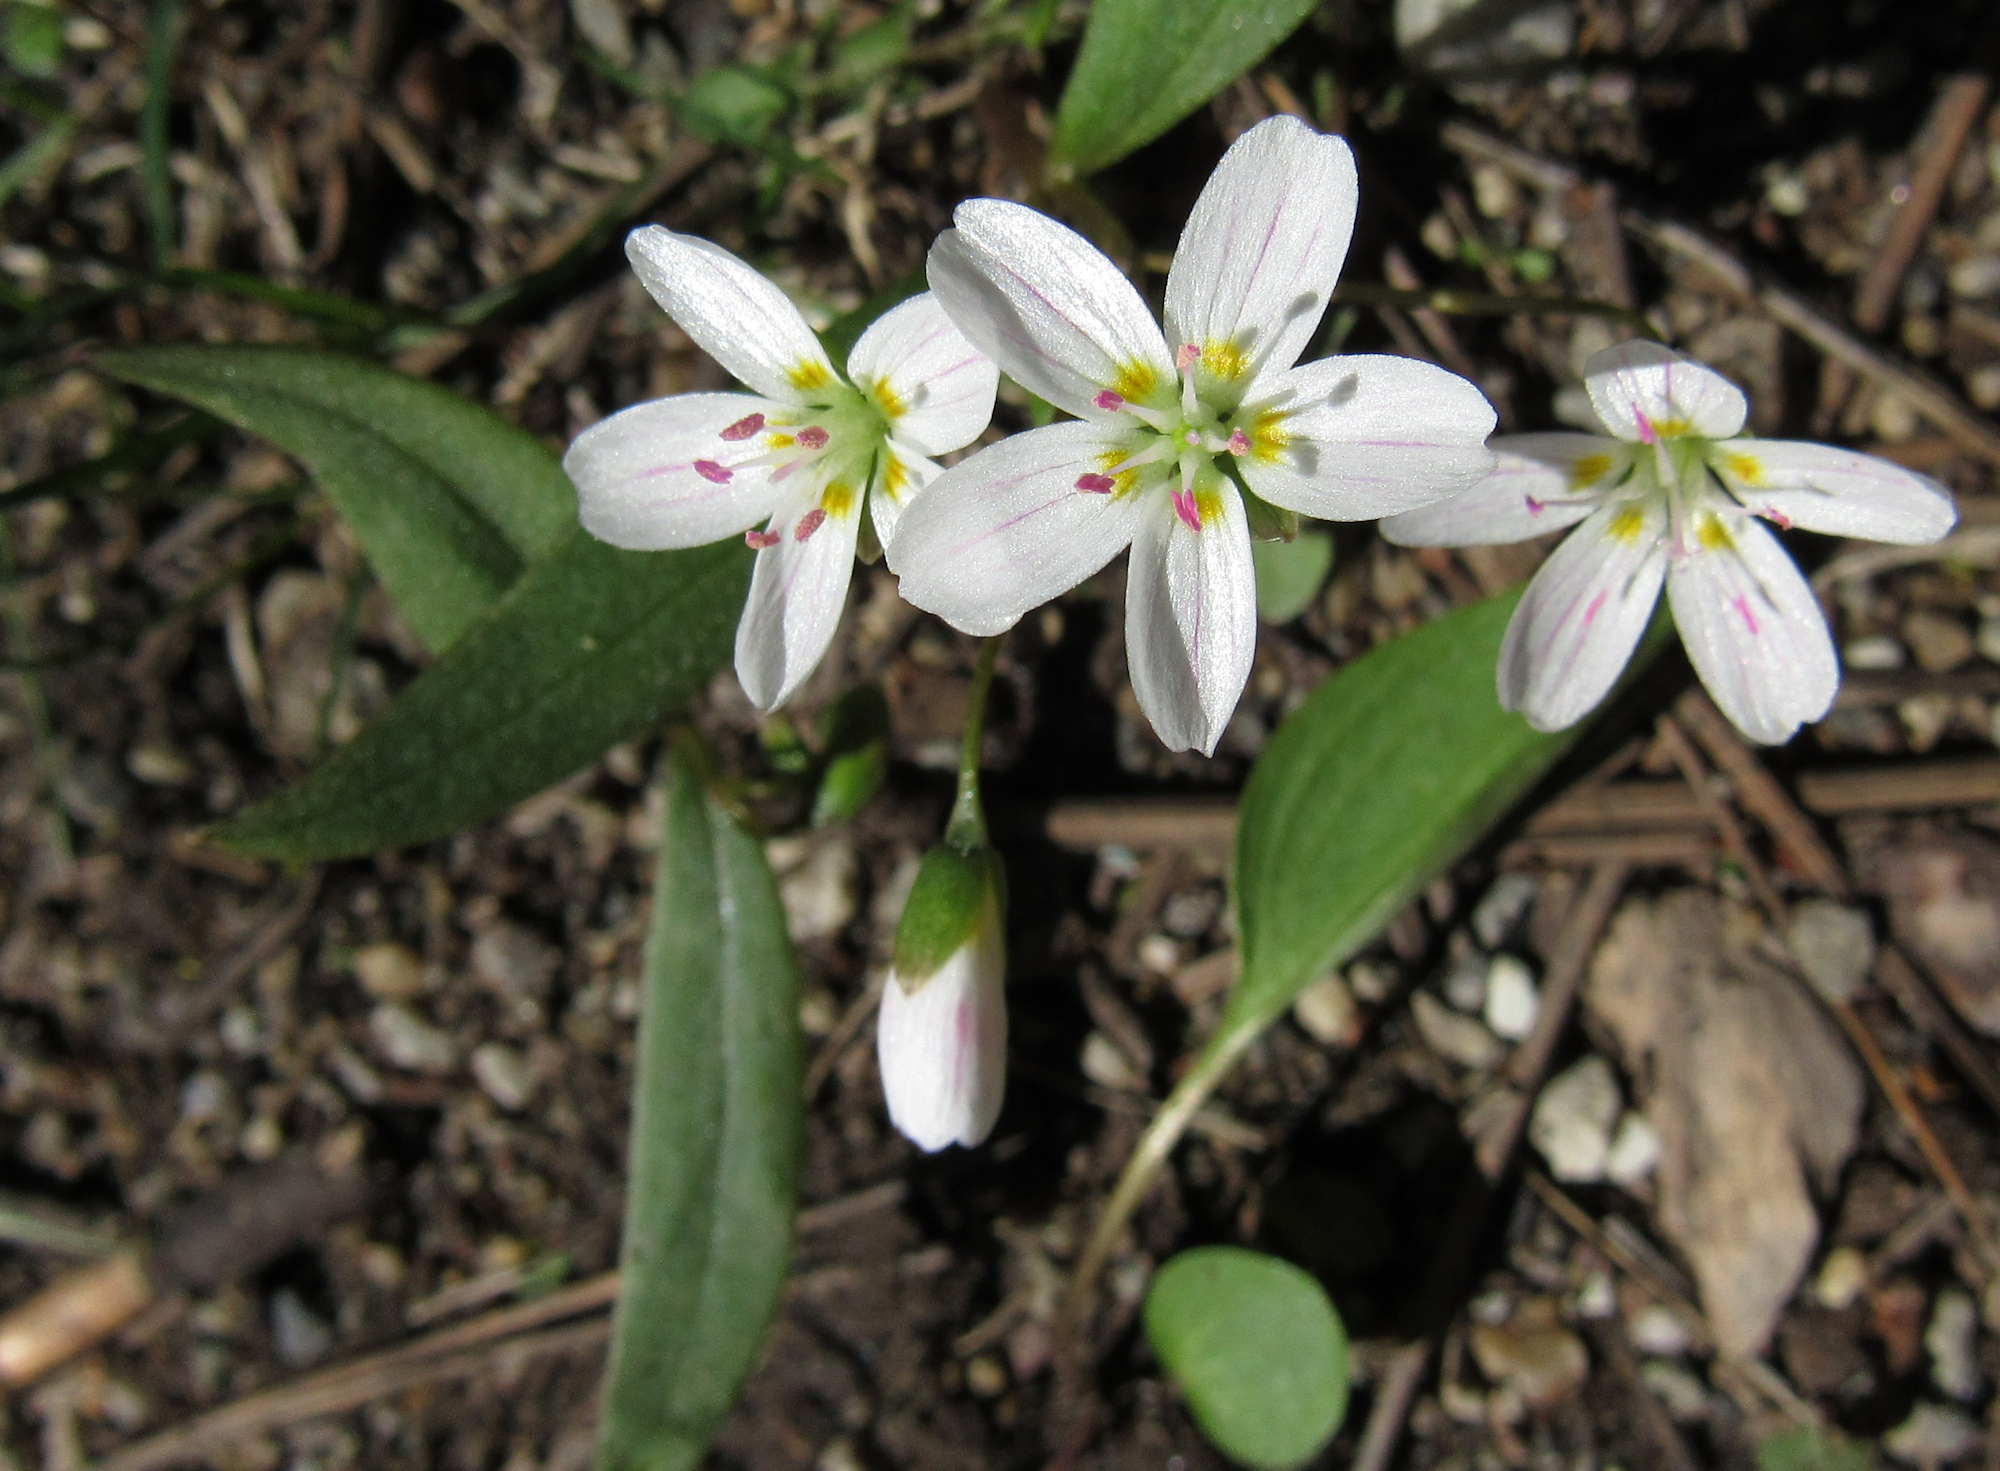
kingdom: Plantae
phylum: Tracheophyta
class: Magnoliopsida
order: Caryophyllales
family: Montiaceae
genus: Claytonia
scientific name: Claytonia lanceolata
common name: Western spring-beauty
